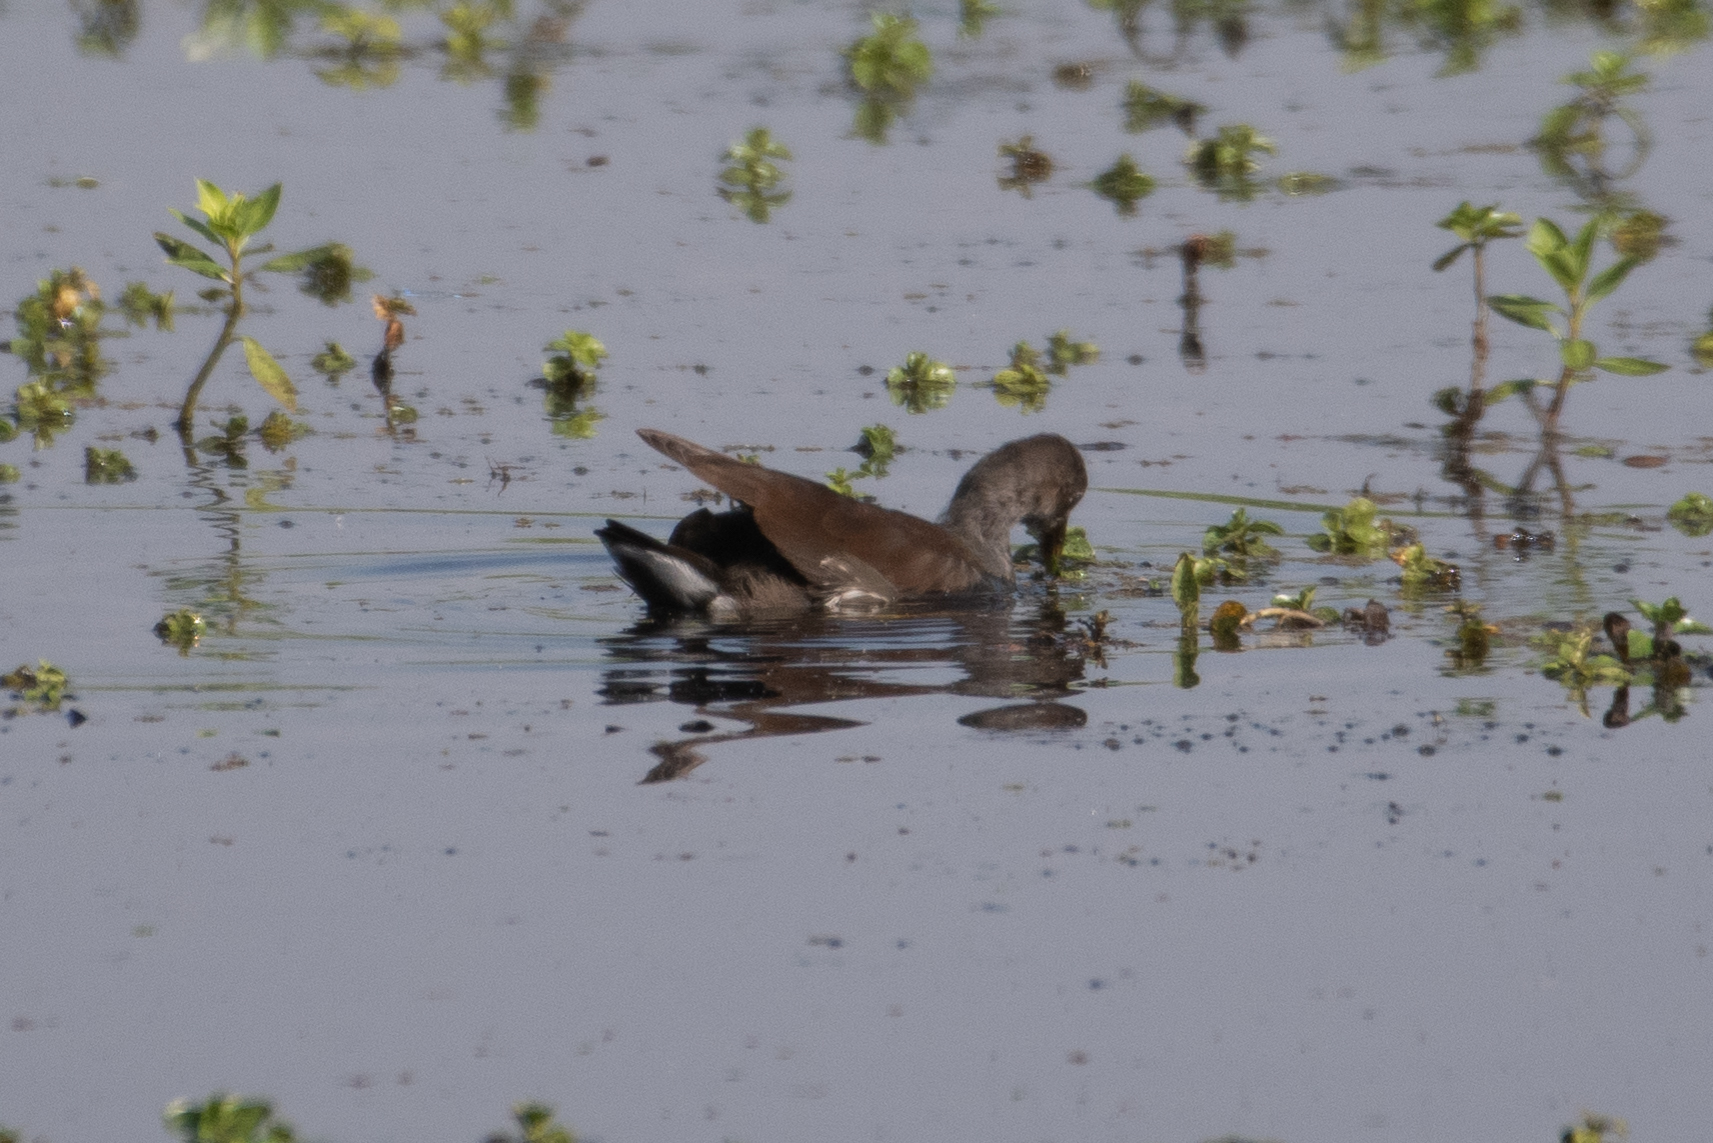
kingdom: Animalia
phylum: Chordata
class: Aves
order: Gruiformes
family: Rallidae
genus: Gallinula
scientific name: Gallinula chloropus
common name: Common moorhen
